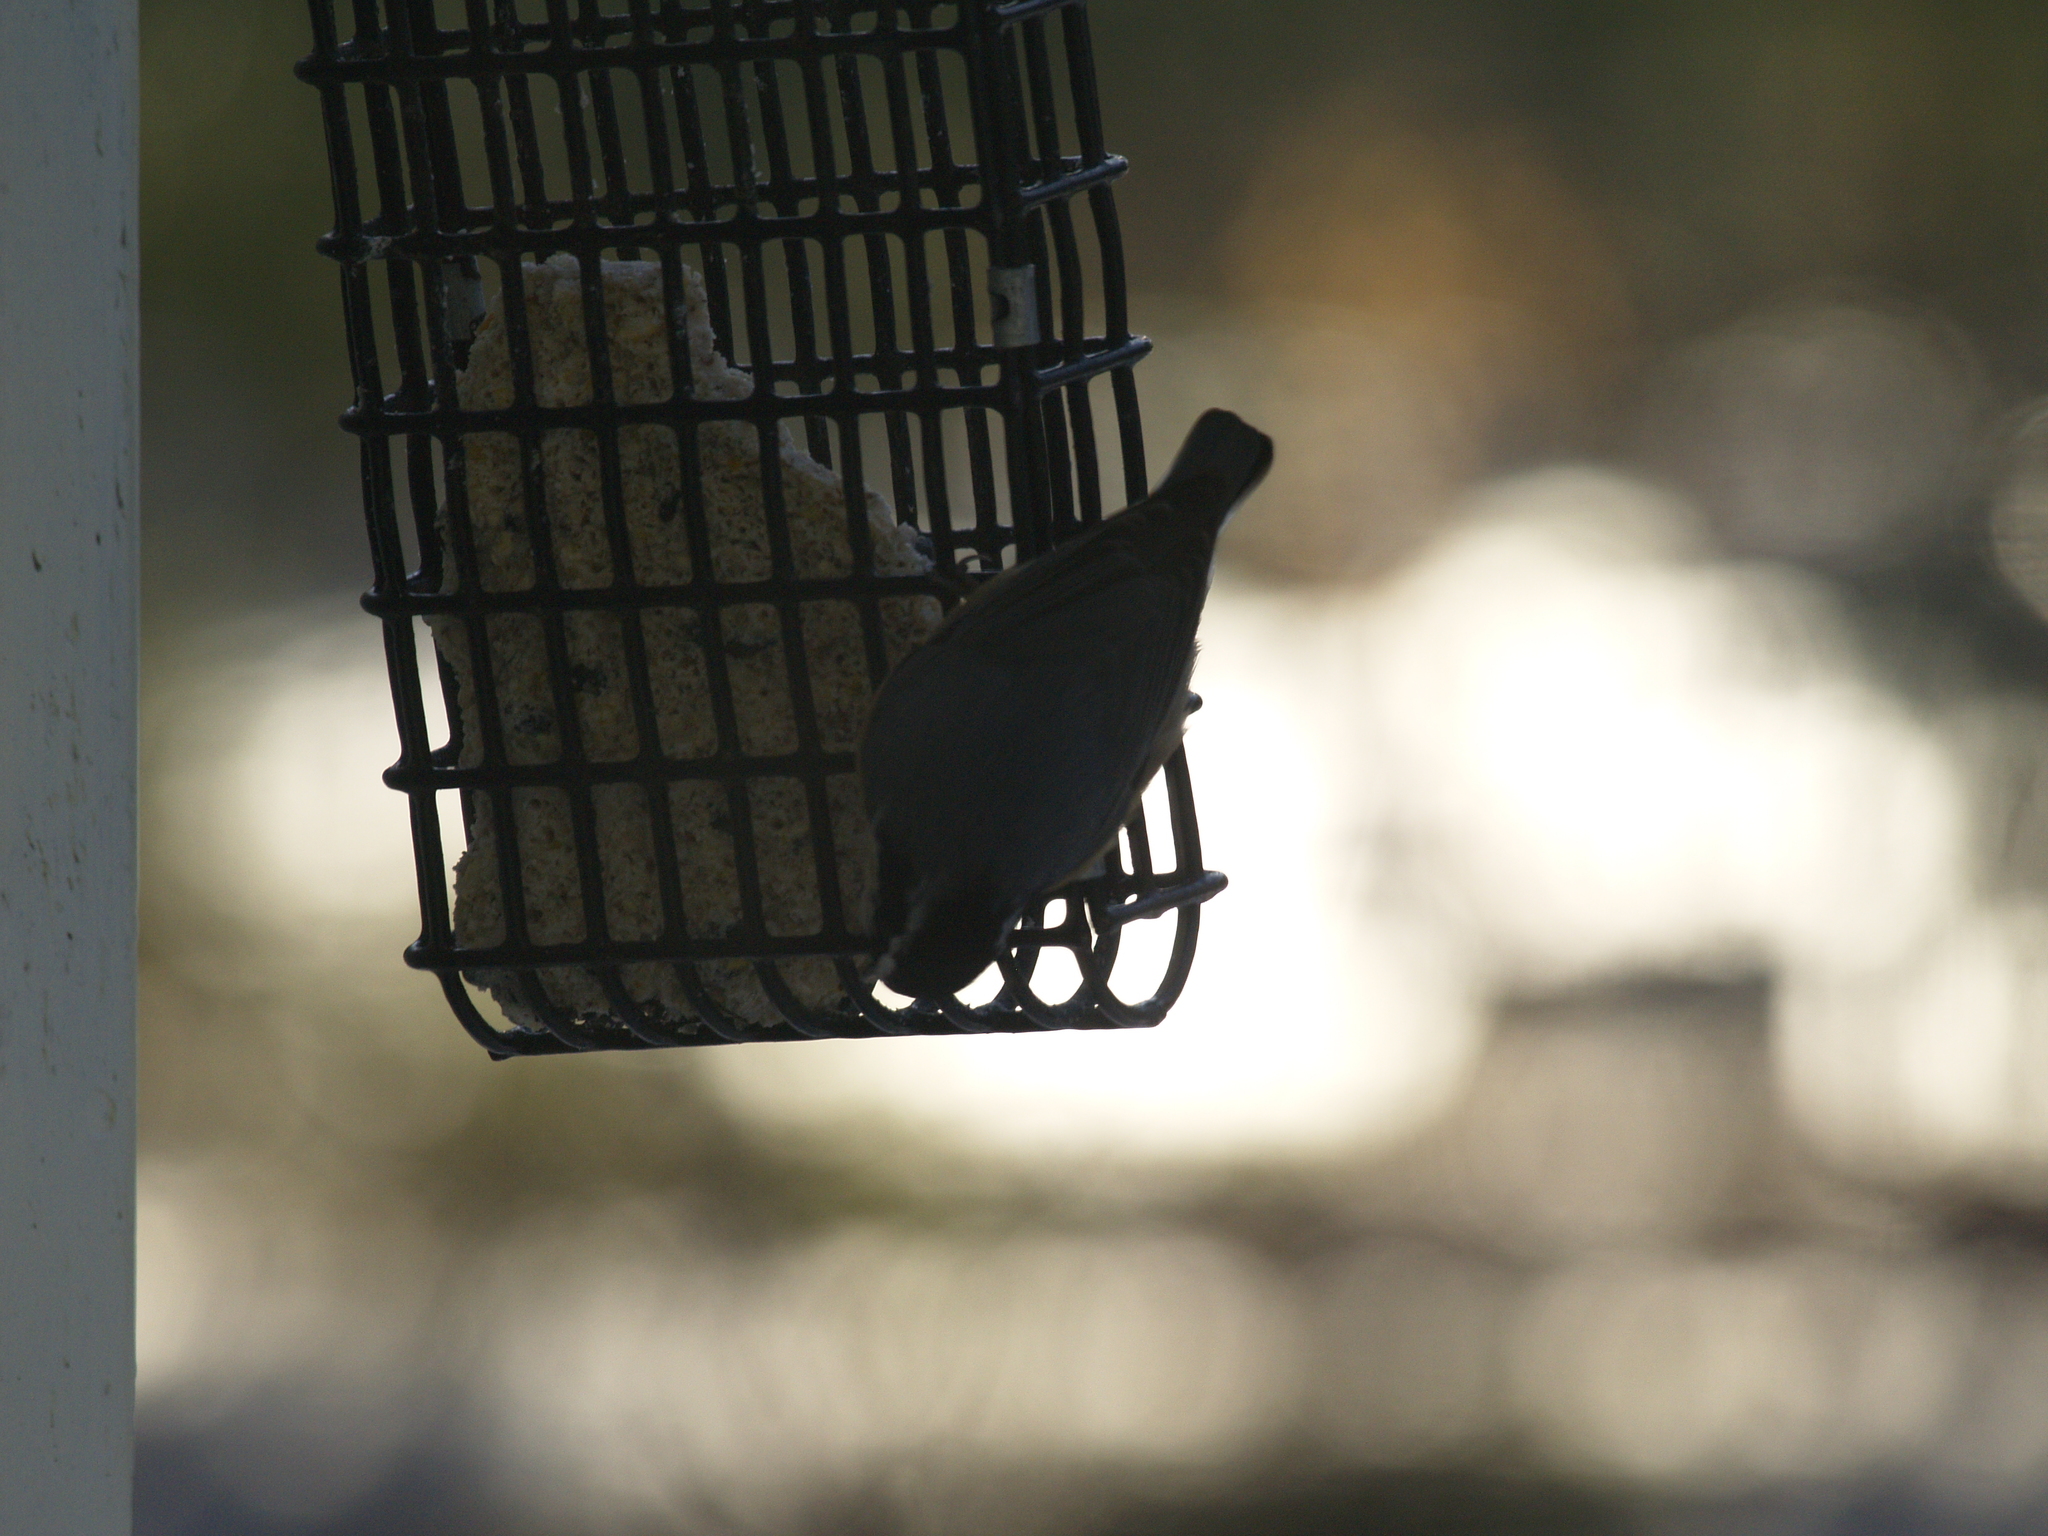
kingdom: Animalia
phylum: Chordata
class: Aves
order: Passeriformes
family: Sittidae
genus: Sitta
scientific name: Sitta canadensis
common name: Red-breasted nuthatch
